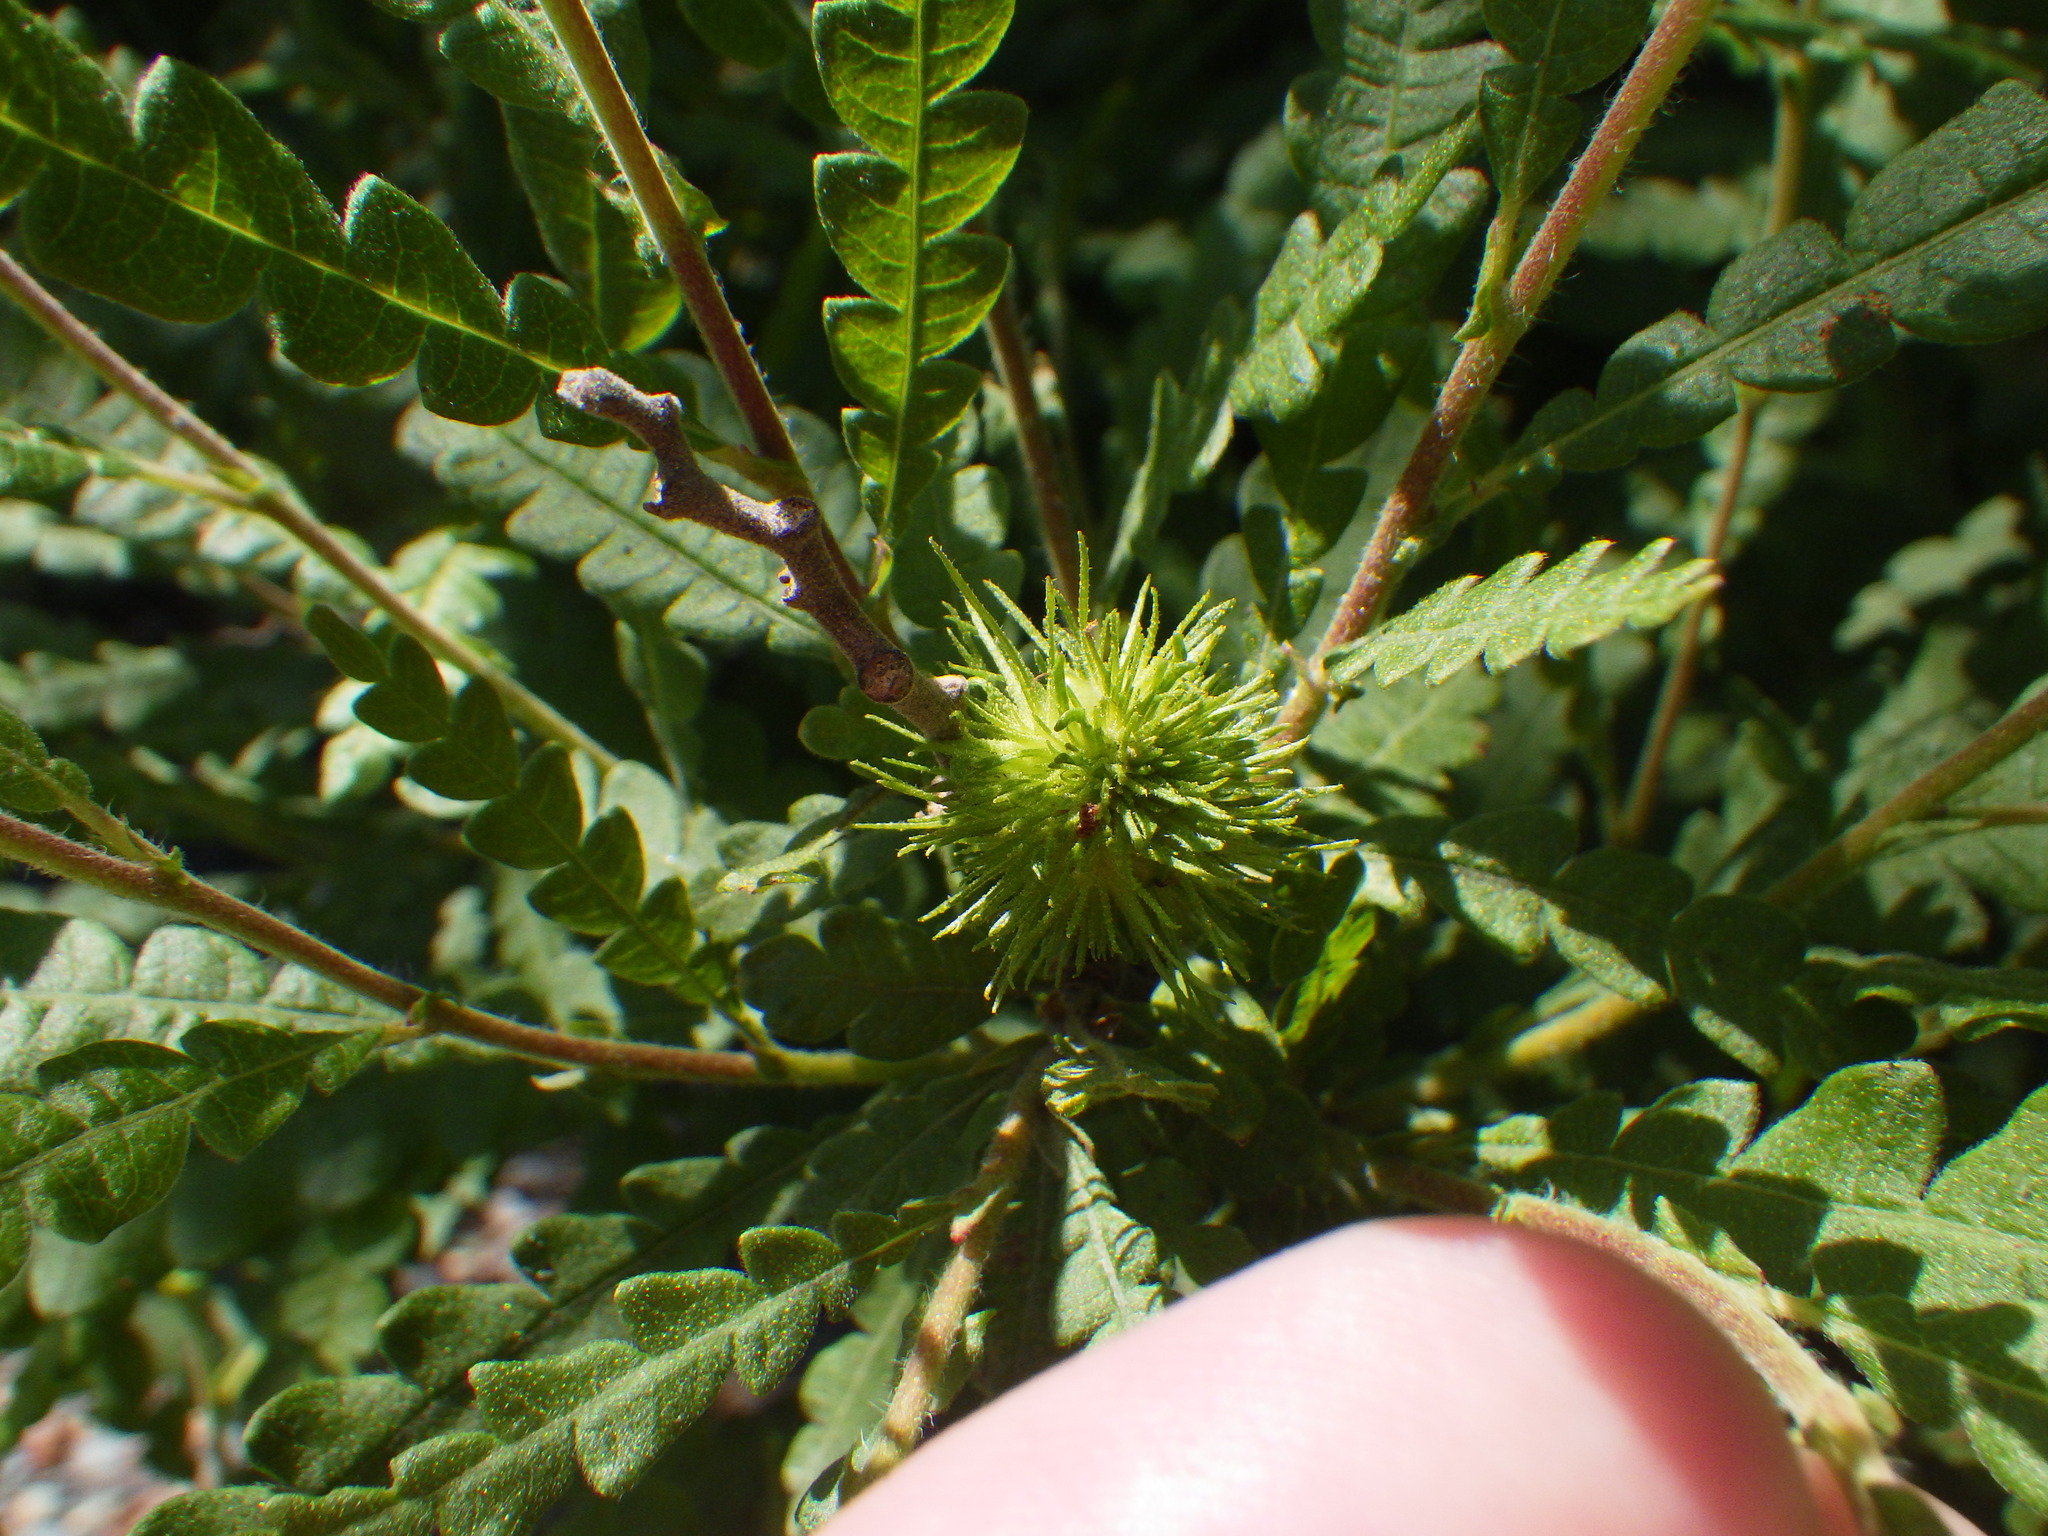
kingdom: Plantae
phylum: Tracheophyta
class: Magnoliopsida
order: Fagales
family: Myricaceae
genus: Comptonia
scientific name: Comptonia peregrina
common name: Sweet-fern
